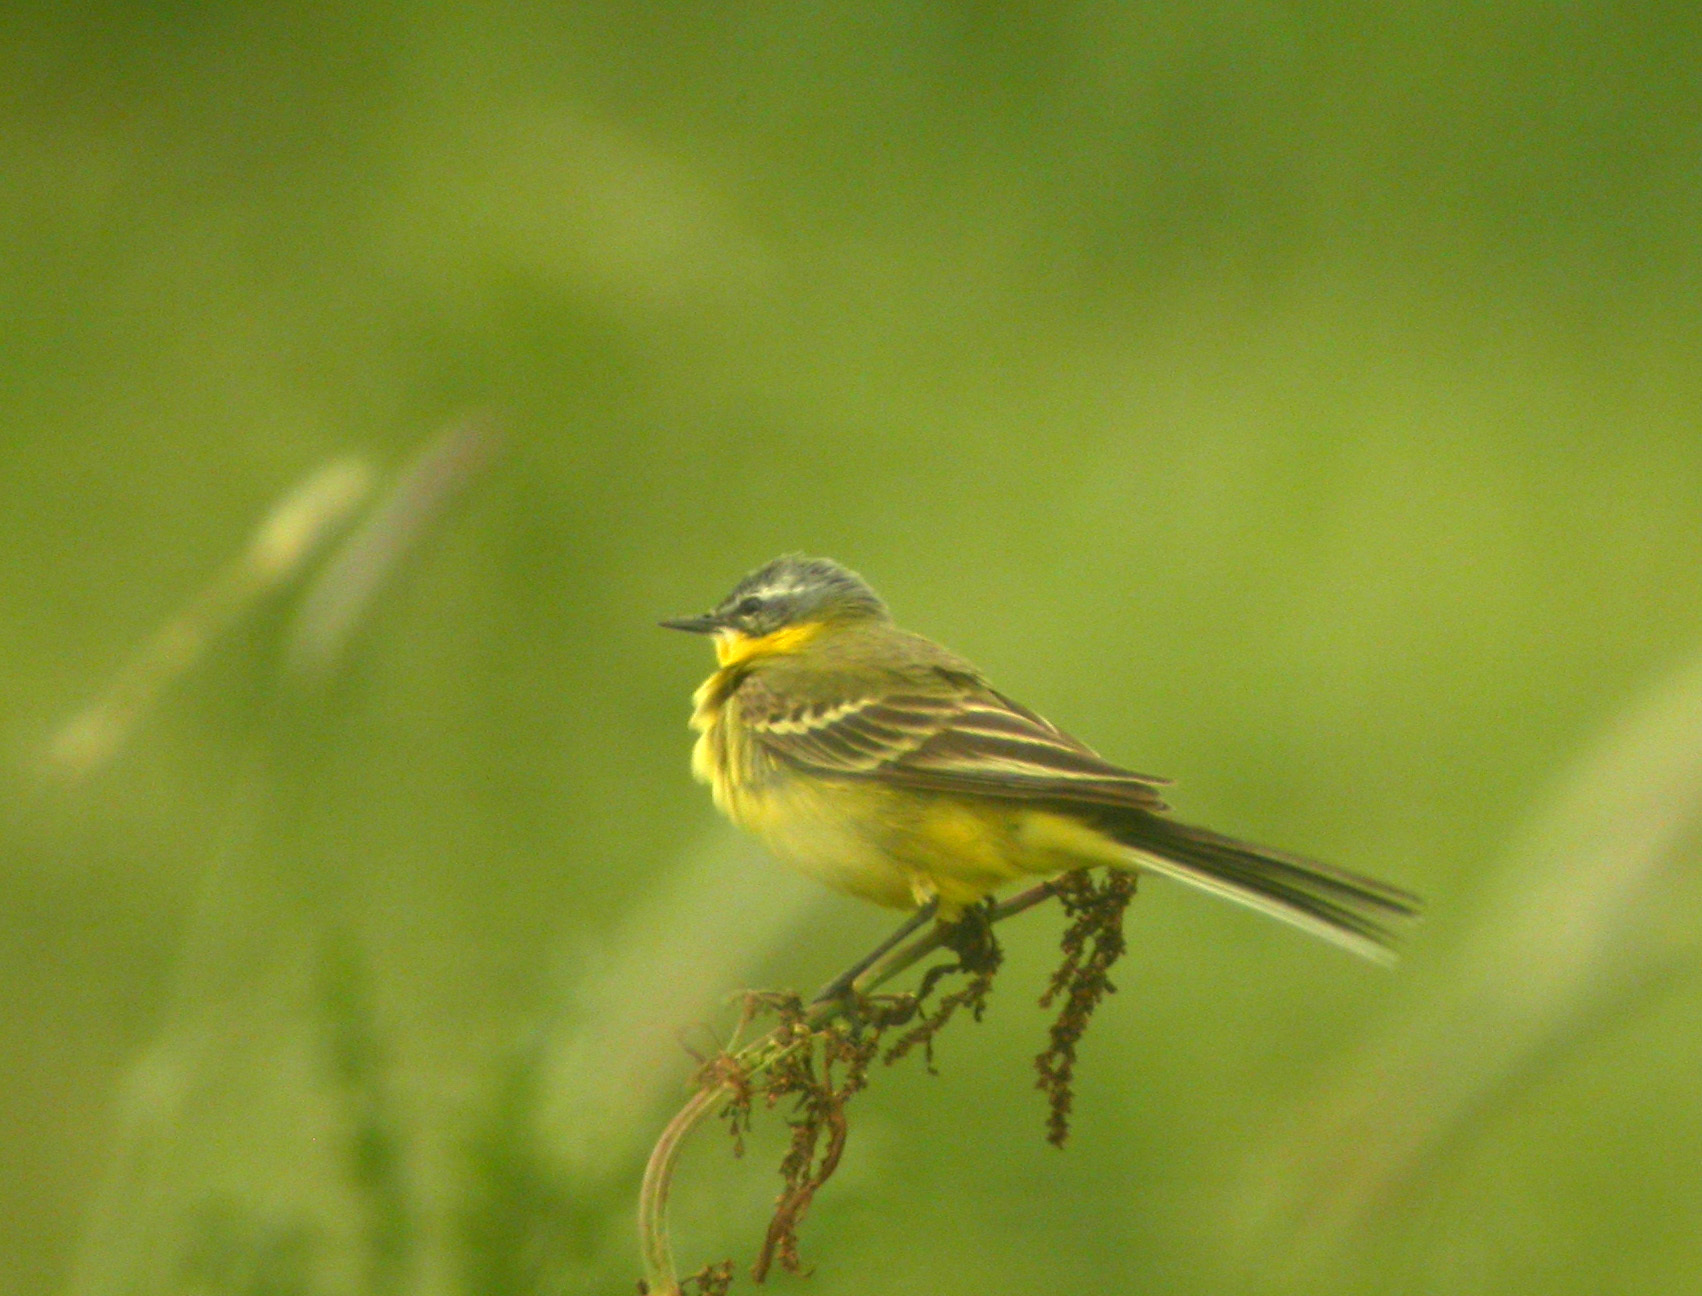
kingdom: Animalia
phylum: Chordata
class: Aves
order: Passeriformes
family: Motacillidae
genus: Motacilla
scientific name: Motacilla flava
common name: Western yellow wagtail
